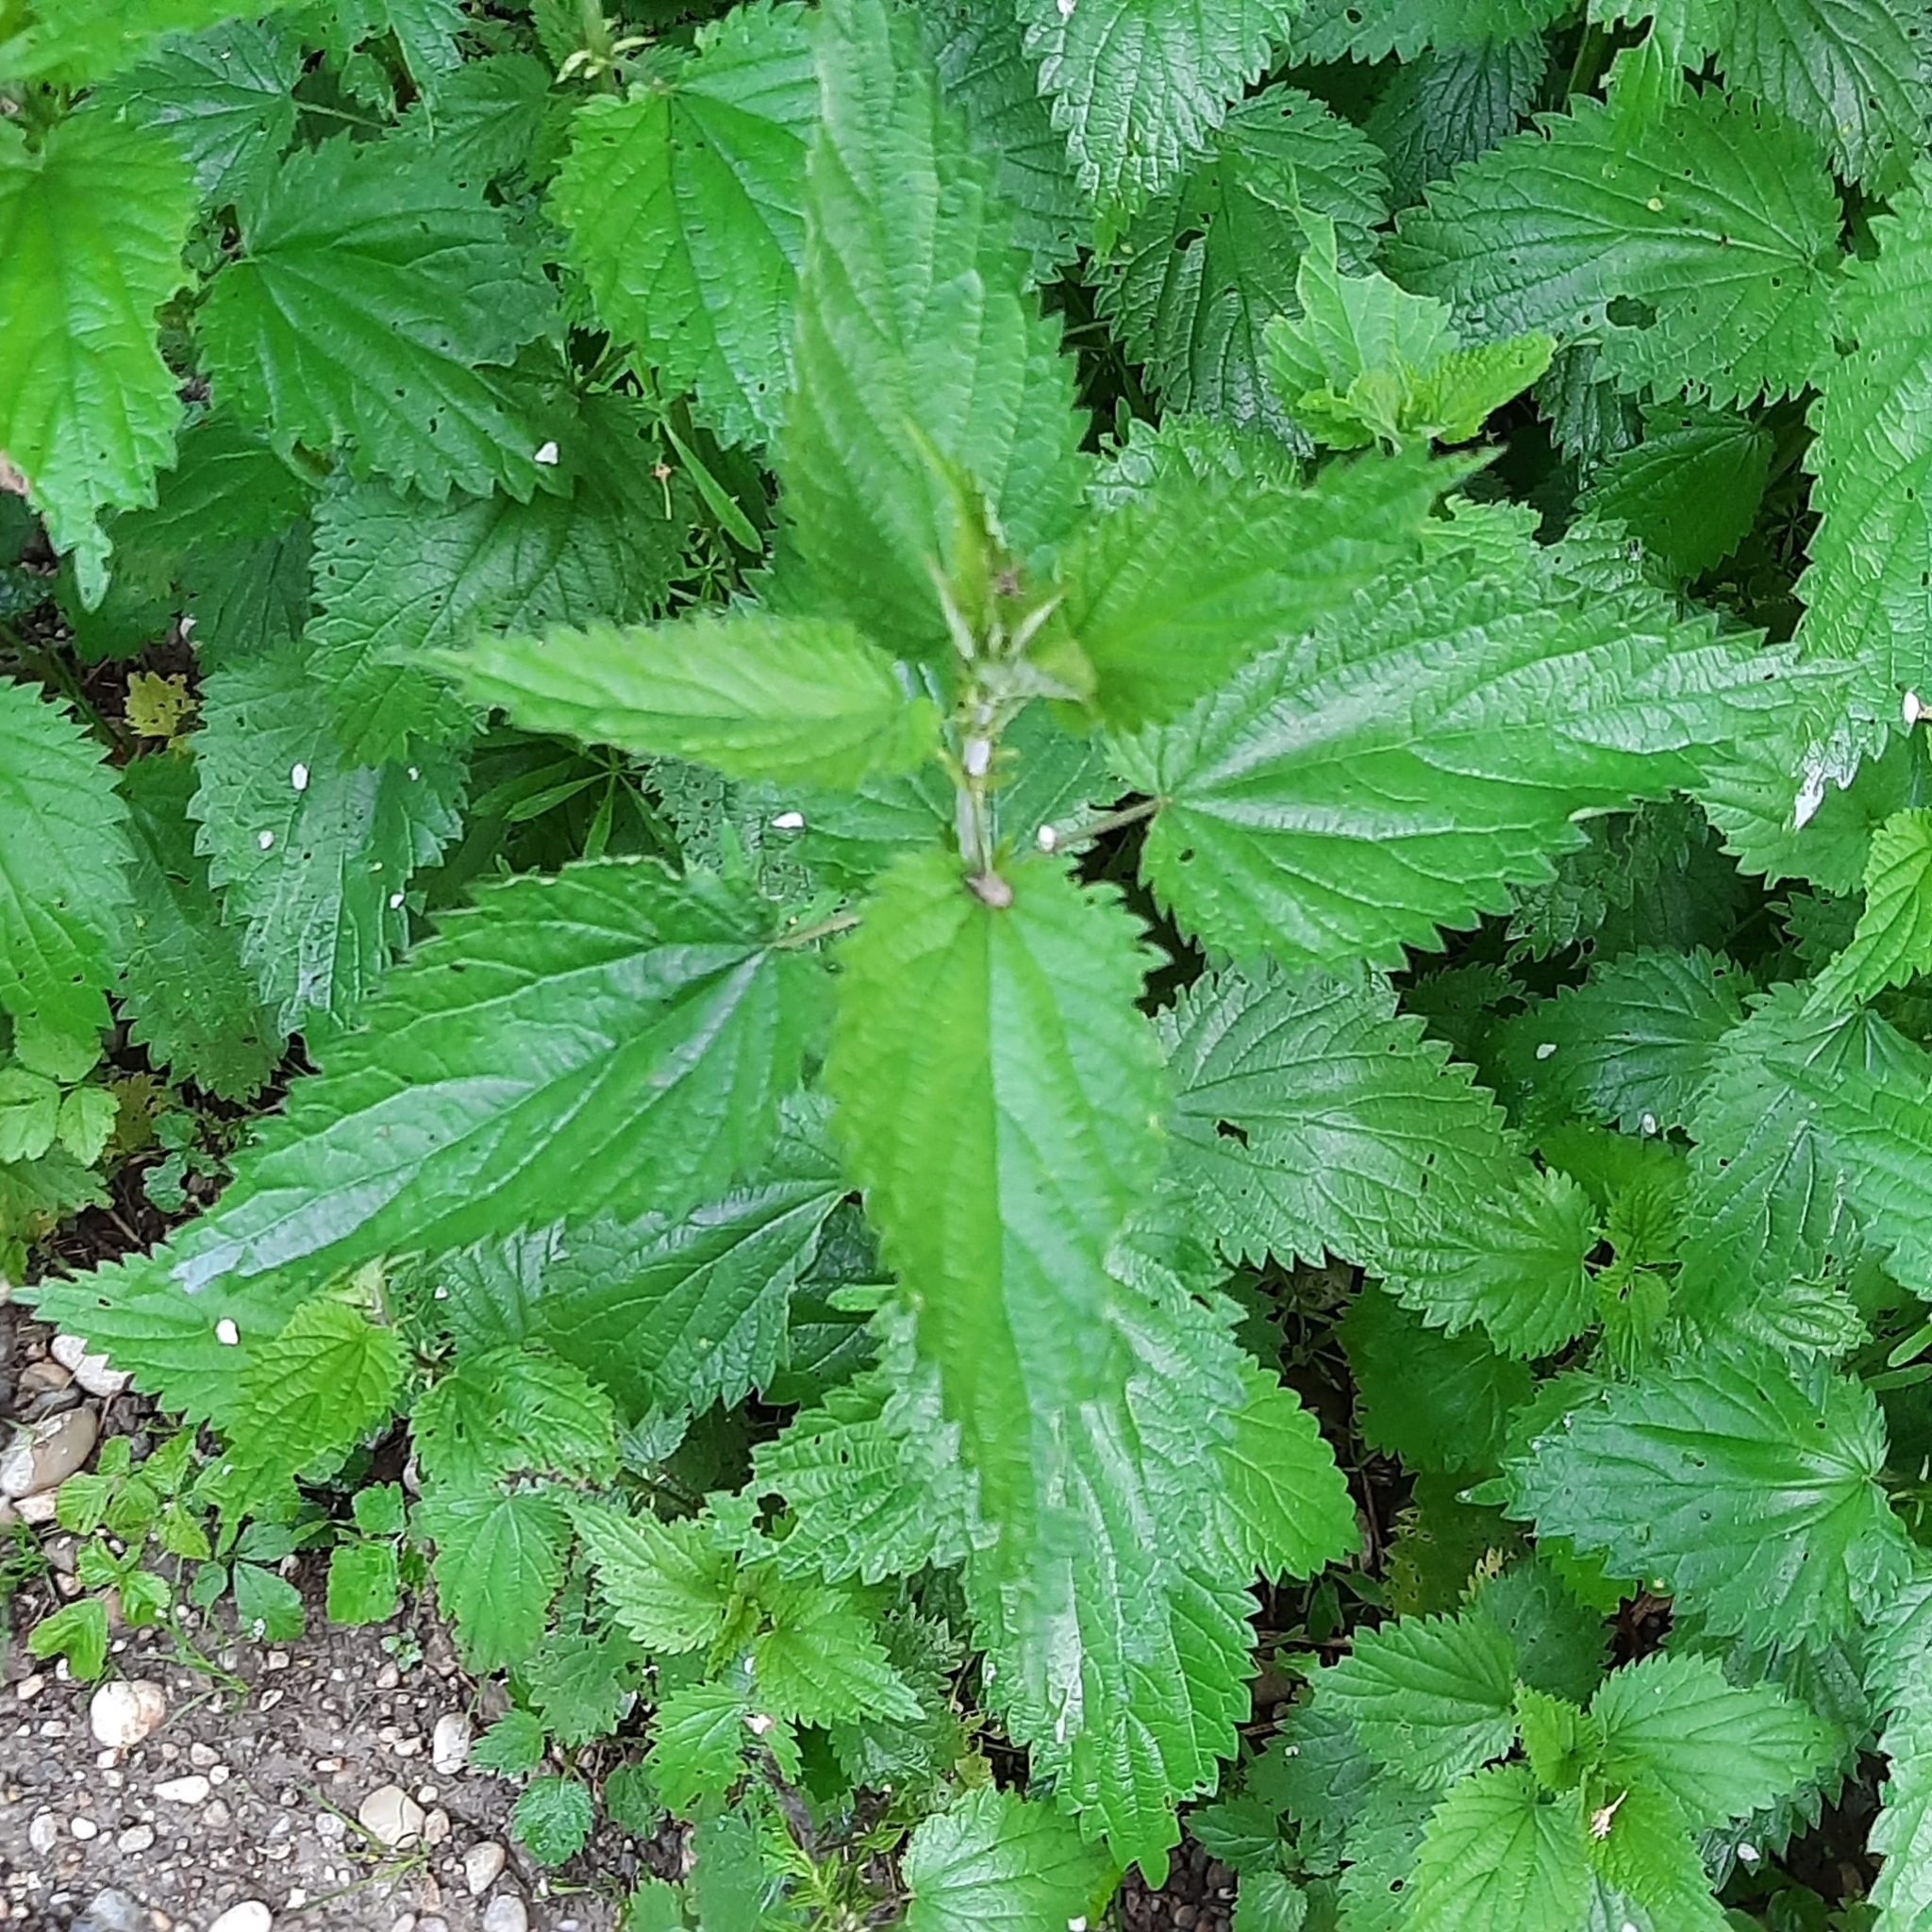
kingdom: Plantae
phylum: Tracheophyta
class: Magnoliopsida
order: Rosales
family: Urticaceae
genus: Urtica
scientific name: Urtica dioica
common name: Common nettle
